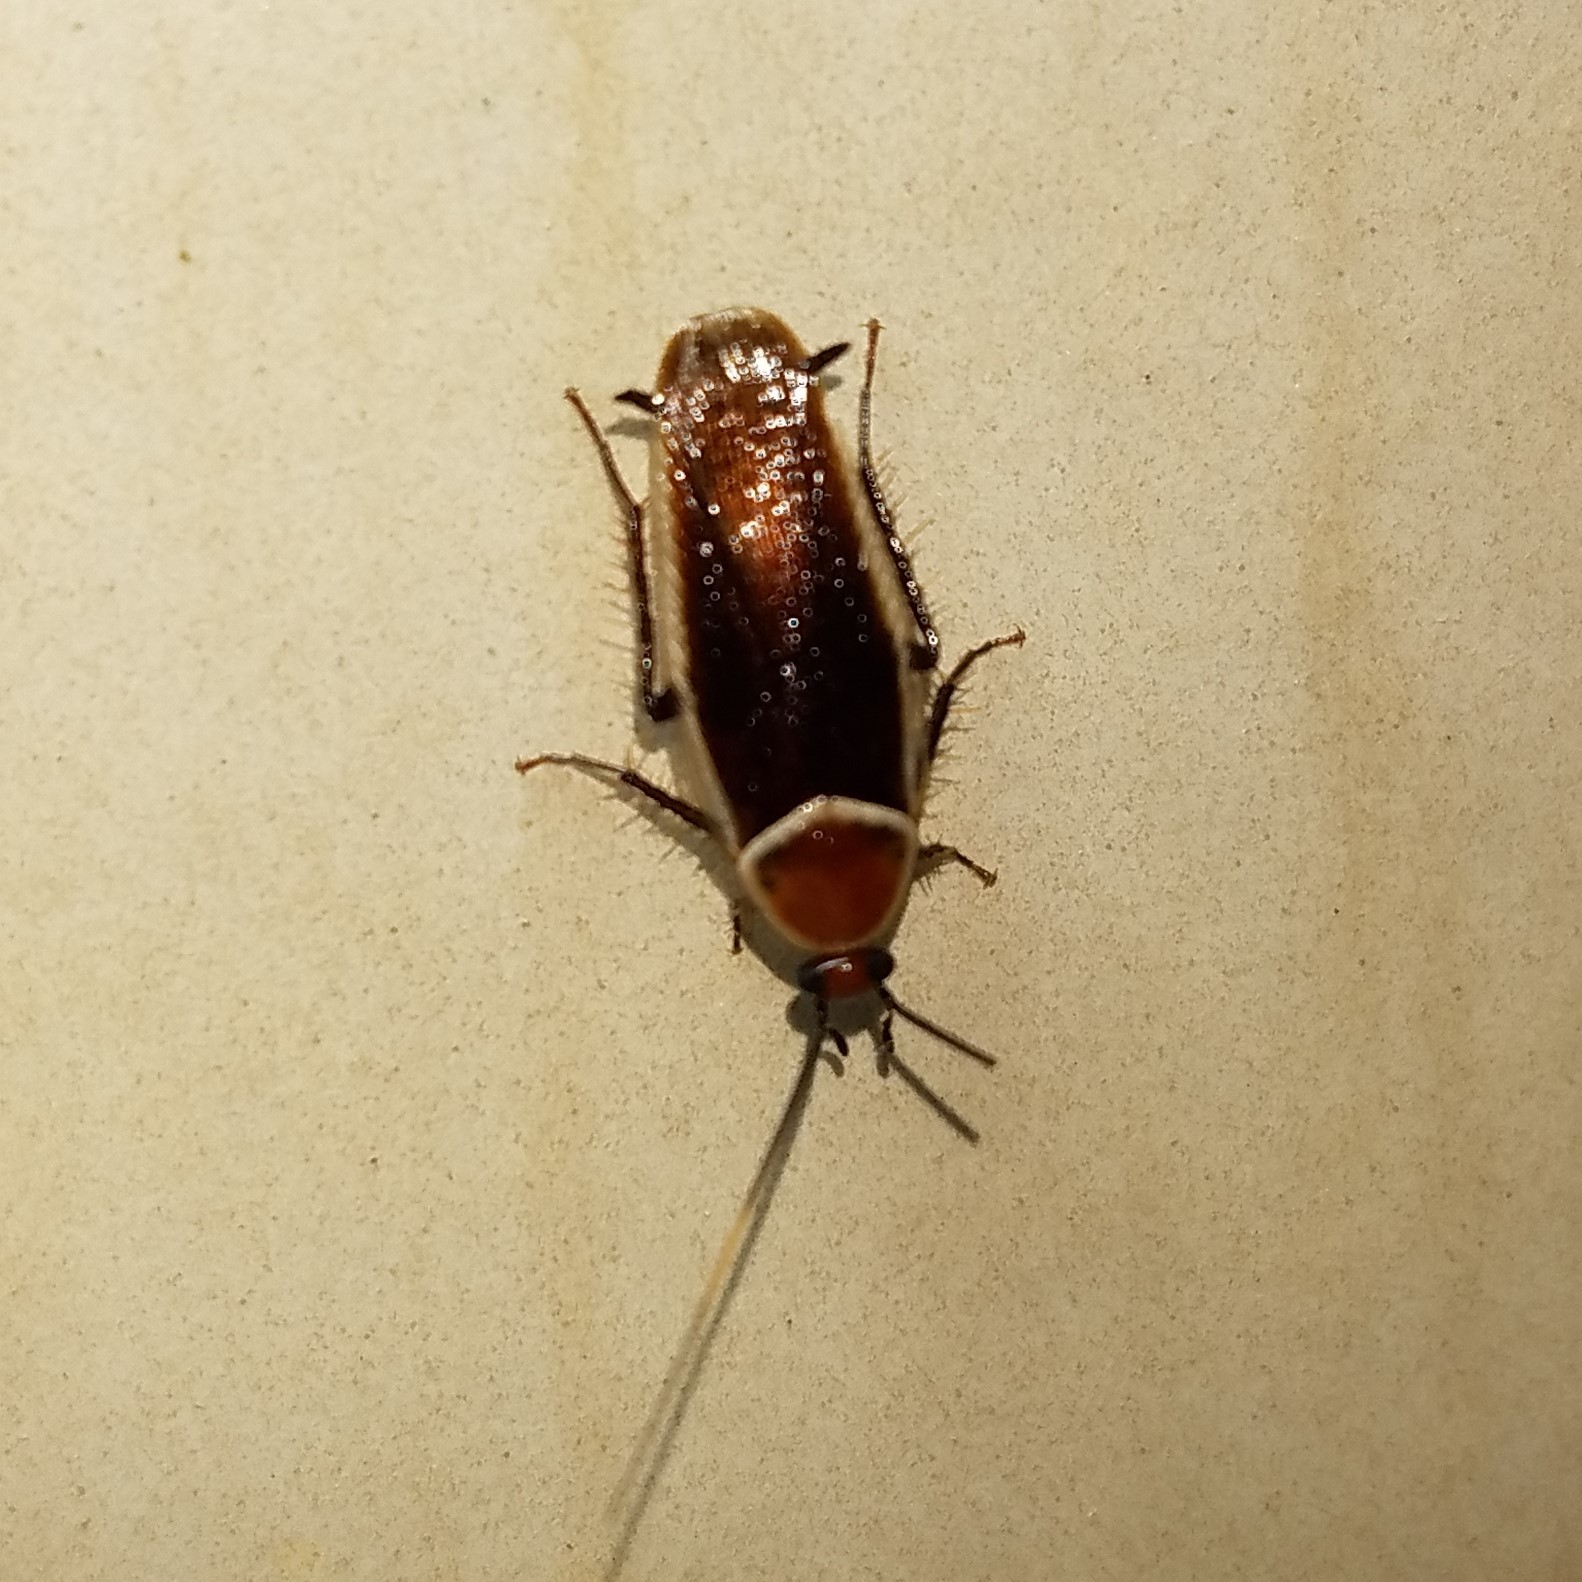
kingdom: Animalia
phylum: Arthropoda
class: Insecta
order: Blattodea
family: Ectobiidae
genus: Pseudomops
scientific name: Pseudomops septentrionalis
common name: Pale-bordered field cockroach
